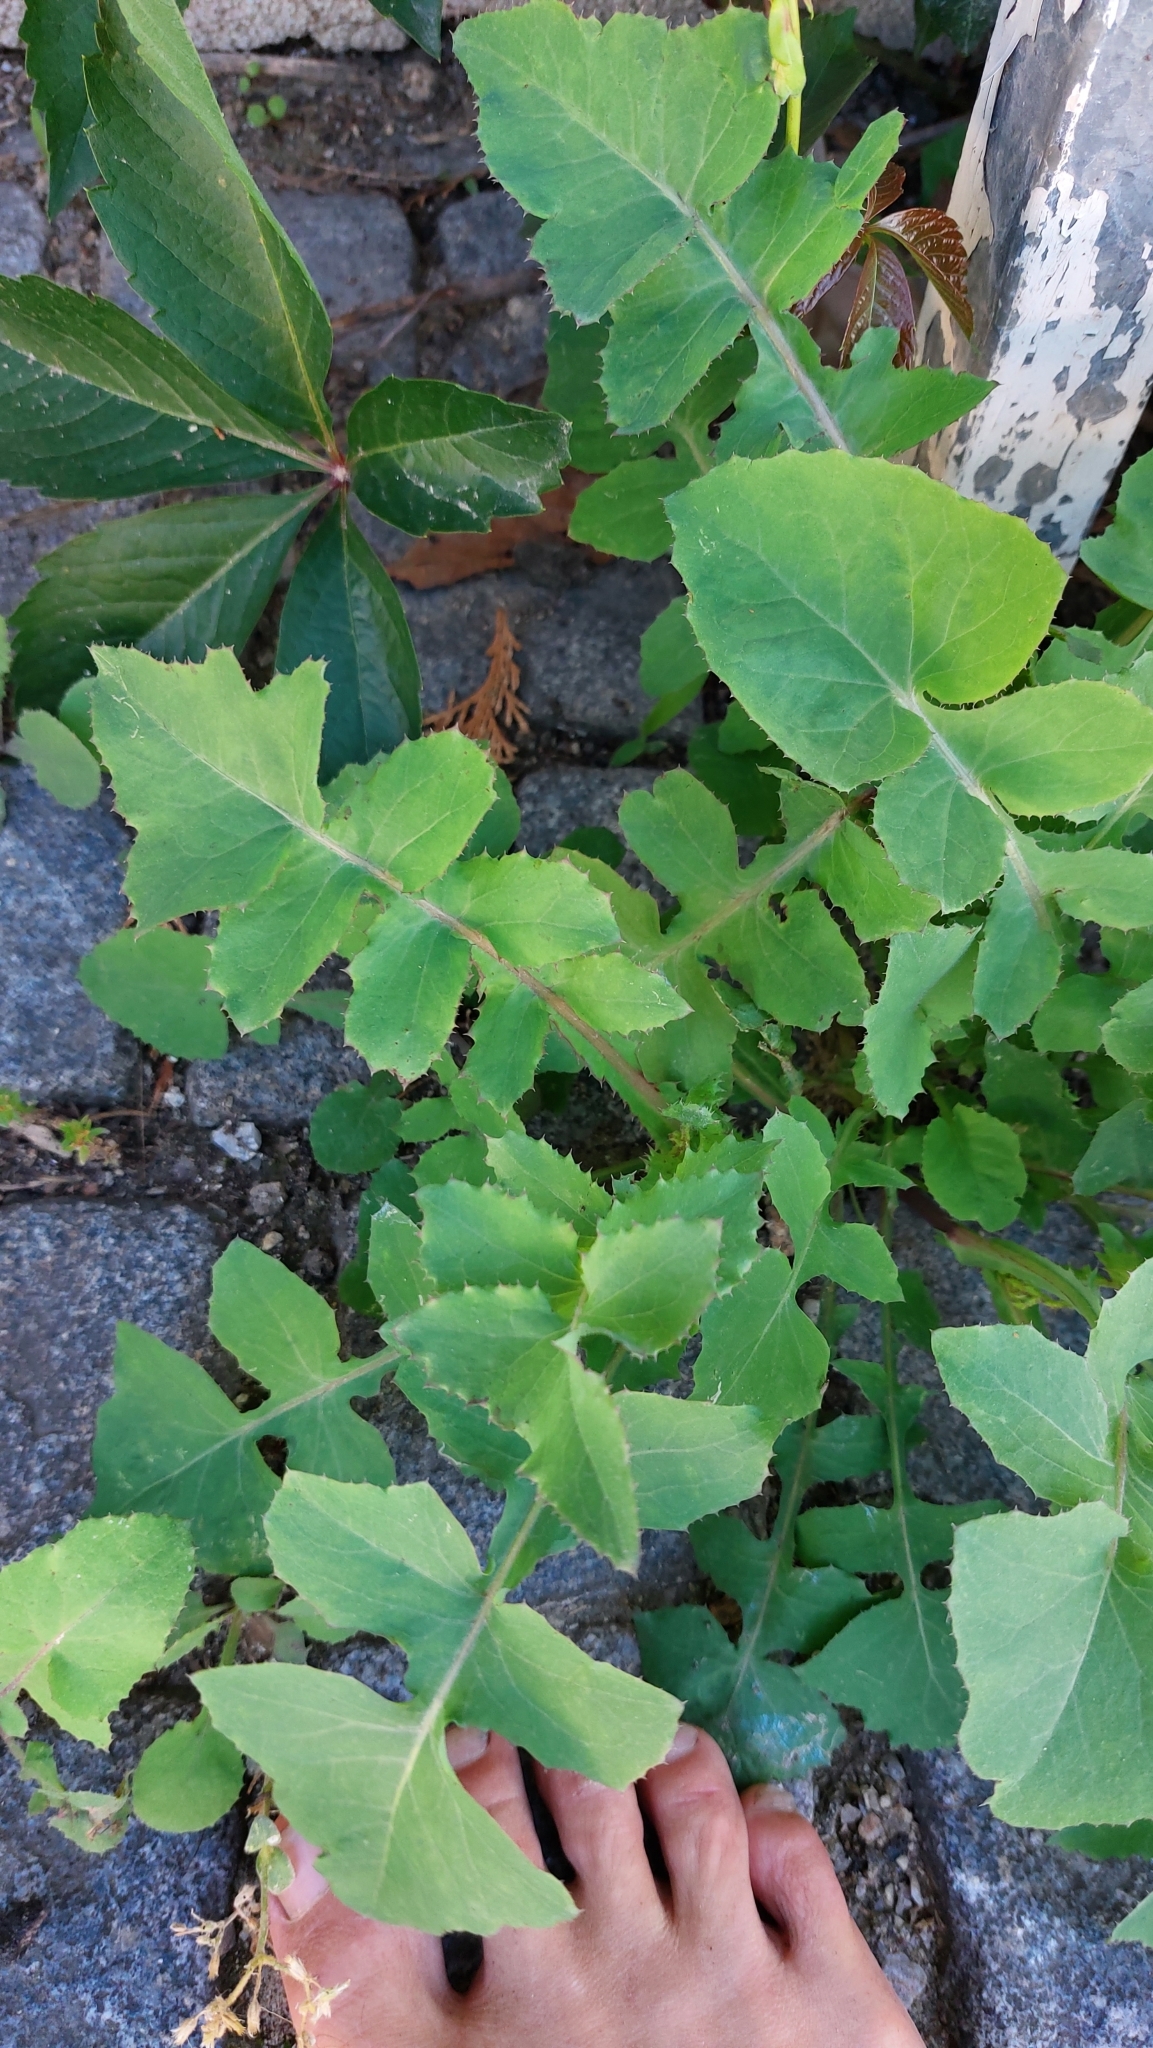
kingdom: Plantae
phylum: Tracheophyta
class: Magnoliopsida
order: Asterales
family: Asteraceae
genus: Sonchus
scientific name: Sonchus oleraceus
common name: Common sowthistle
